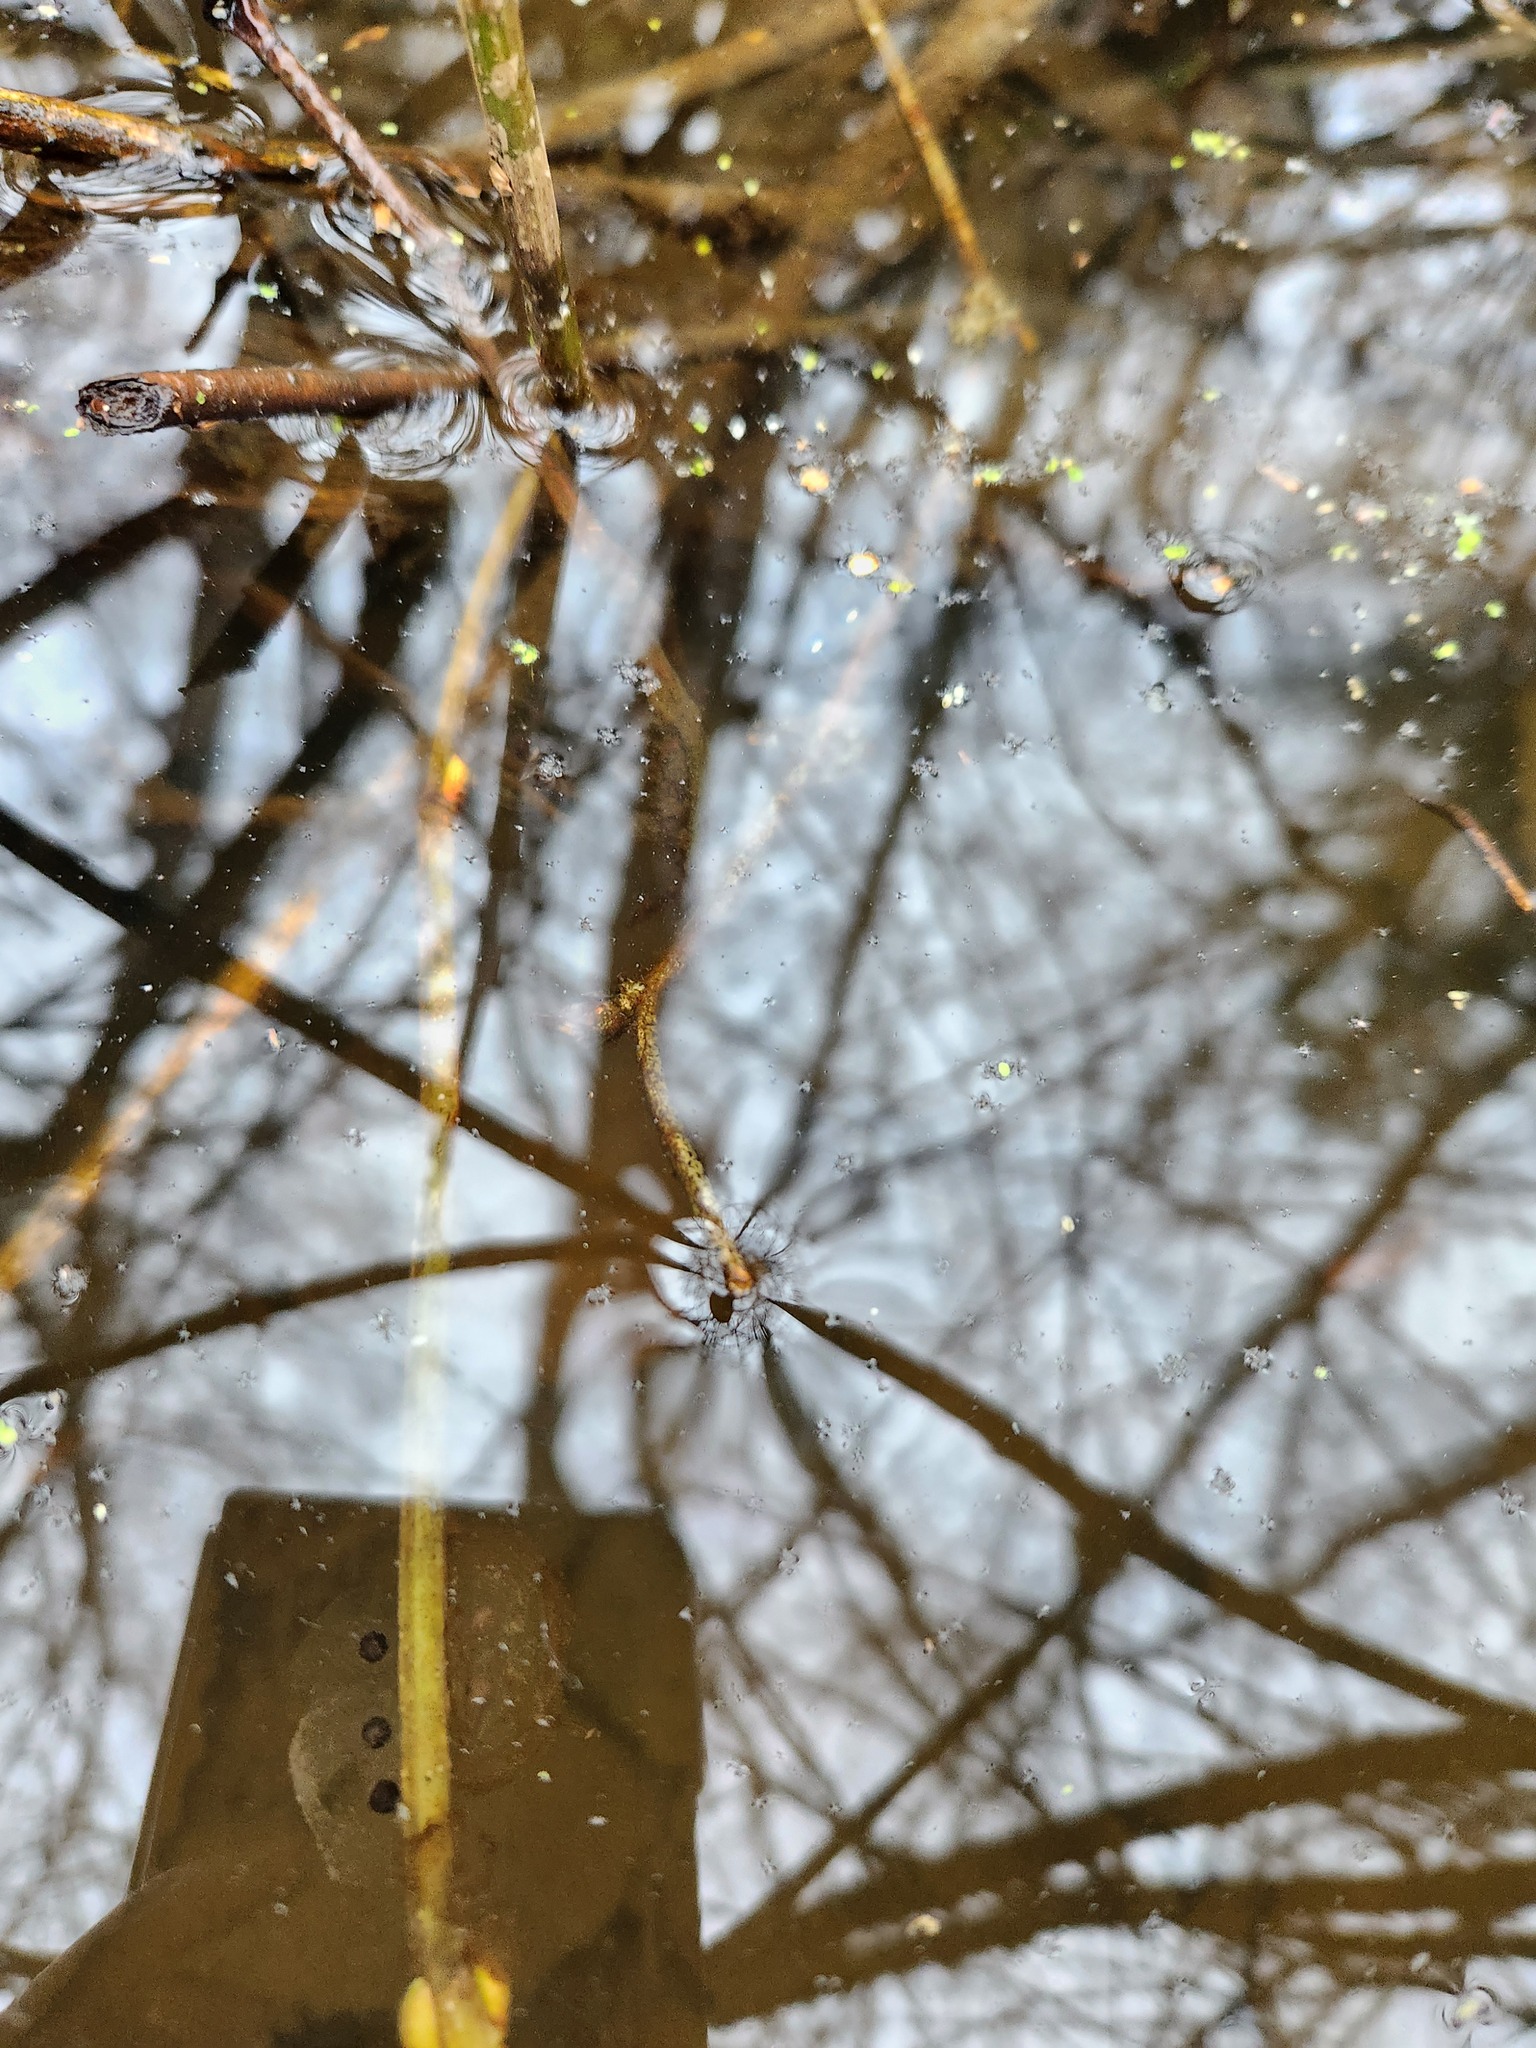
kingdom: Animalia
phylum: Chordata
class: Amphibia
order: Caudata
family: Ambystomatidae
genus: Ambystoma
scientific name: Ambystoma macrodactylum
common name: Long-toed salamander
